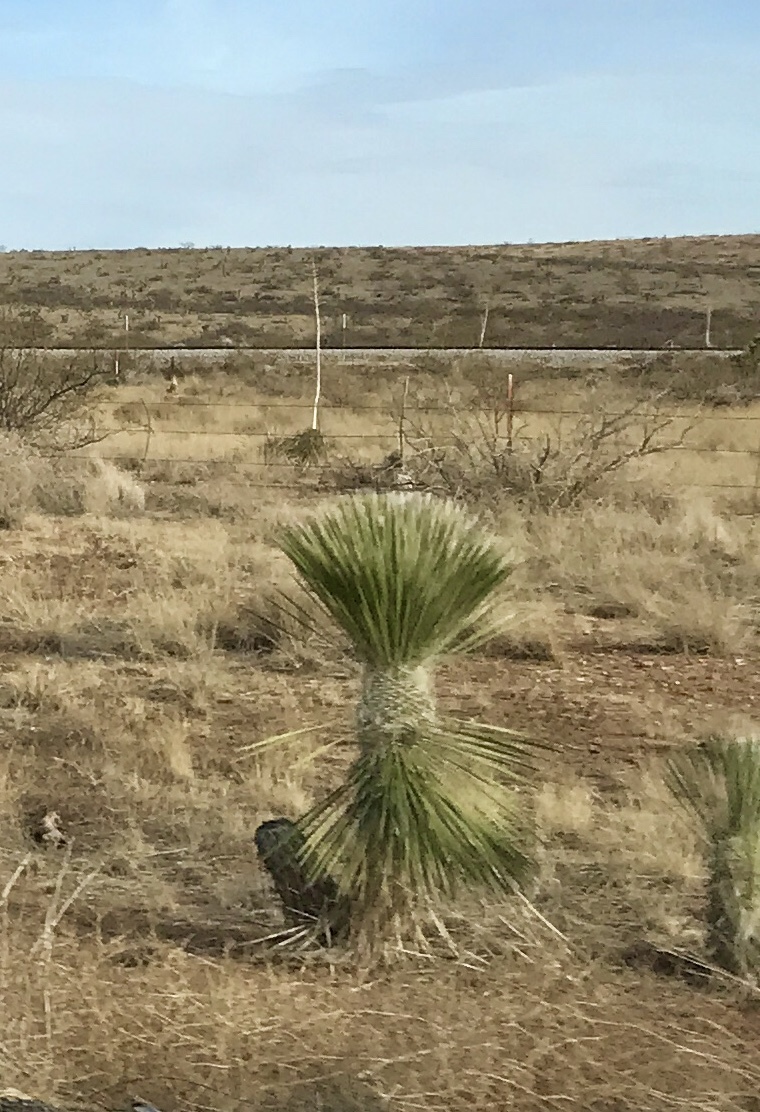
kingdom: Plantae
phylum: Tracheophyta
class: Liliopsida
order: Asparagales
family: Asparagaceae
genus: Yucca
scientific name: Yucca elata
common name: Palmella
